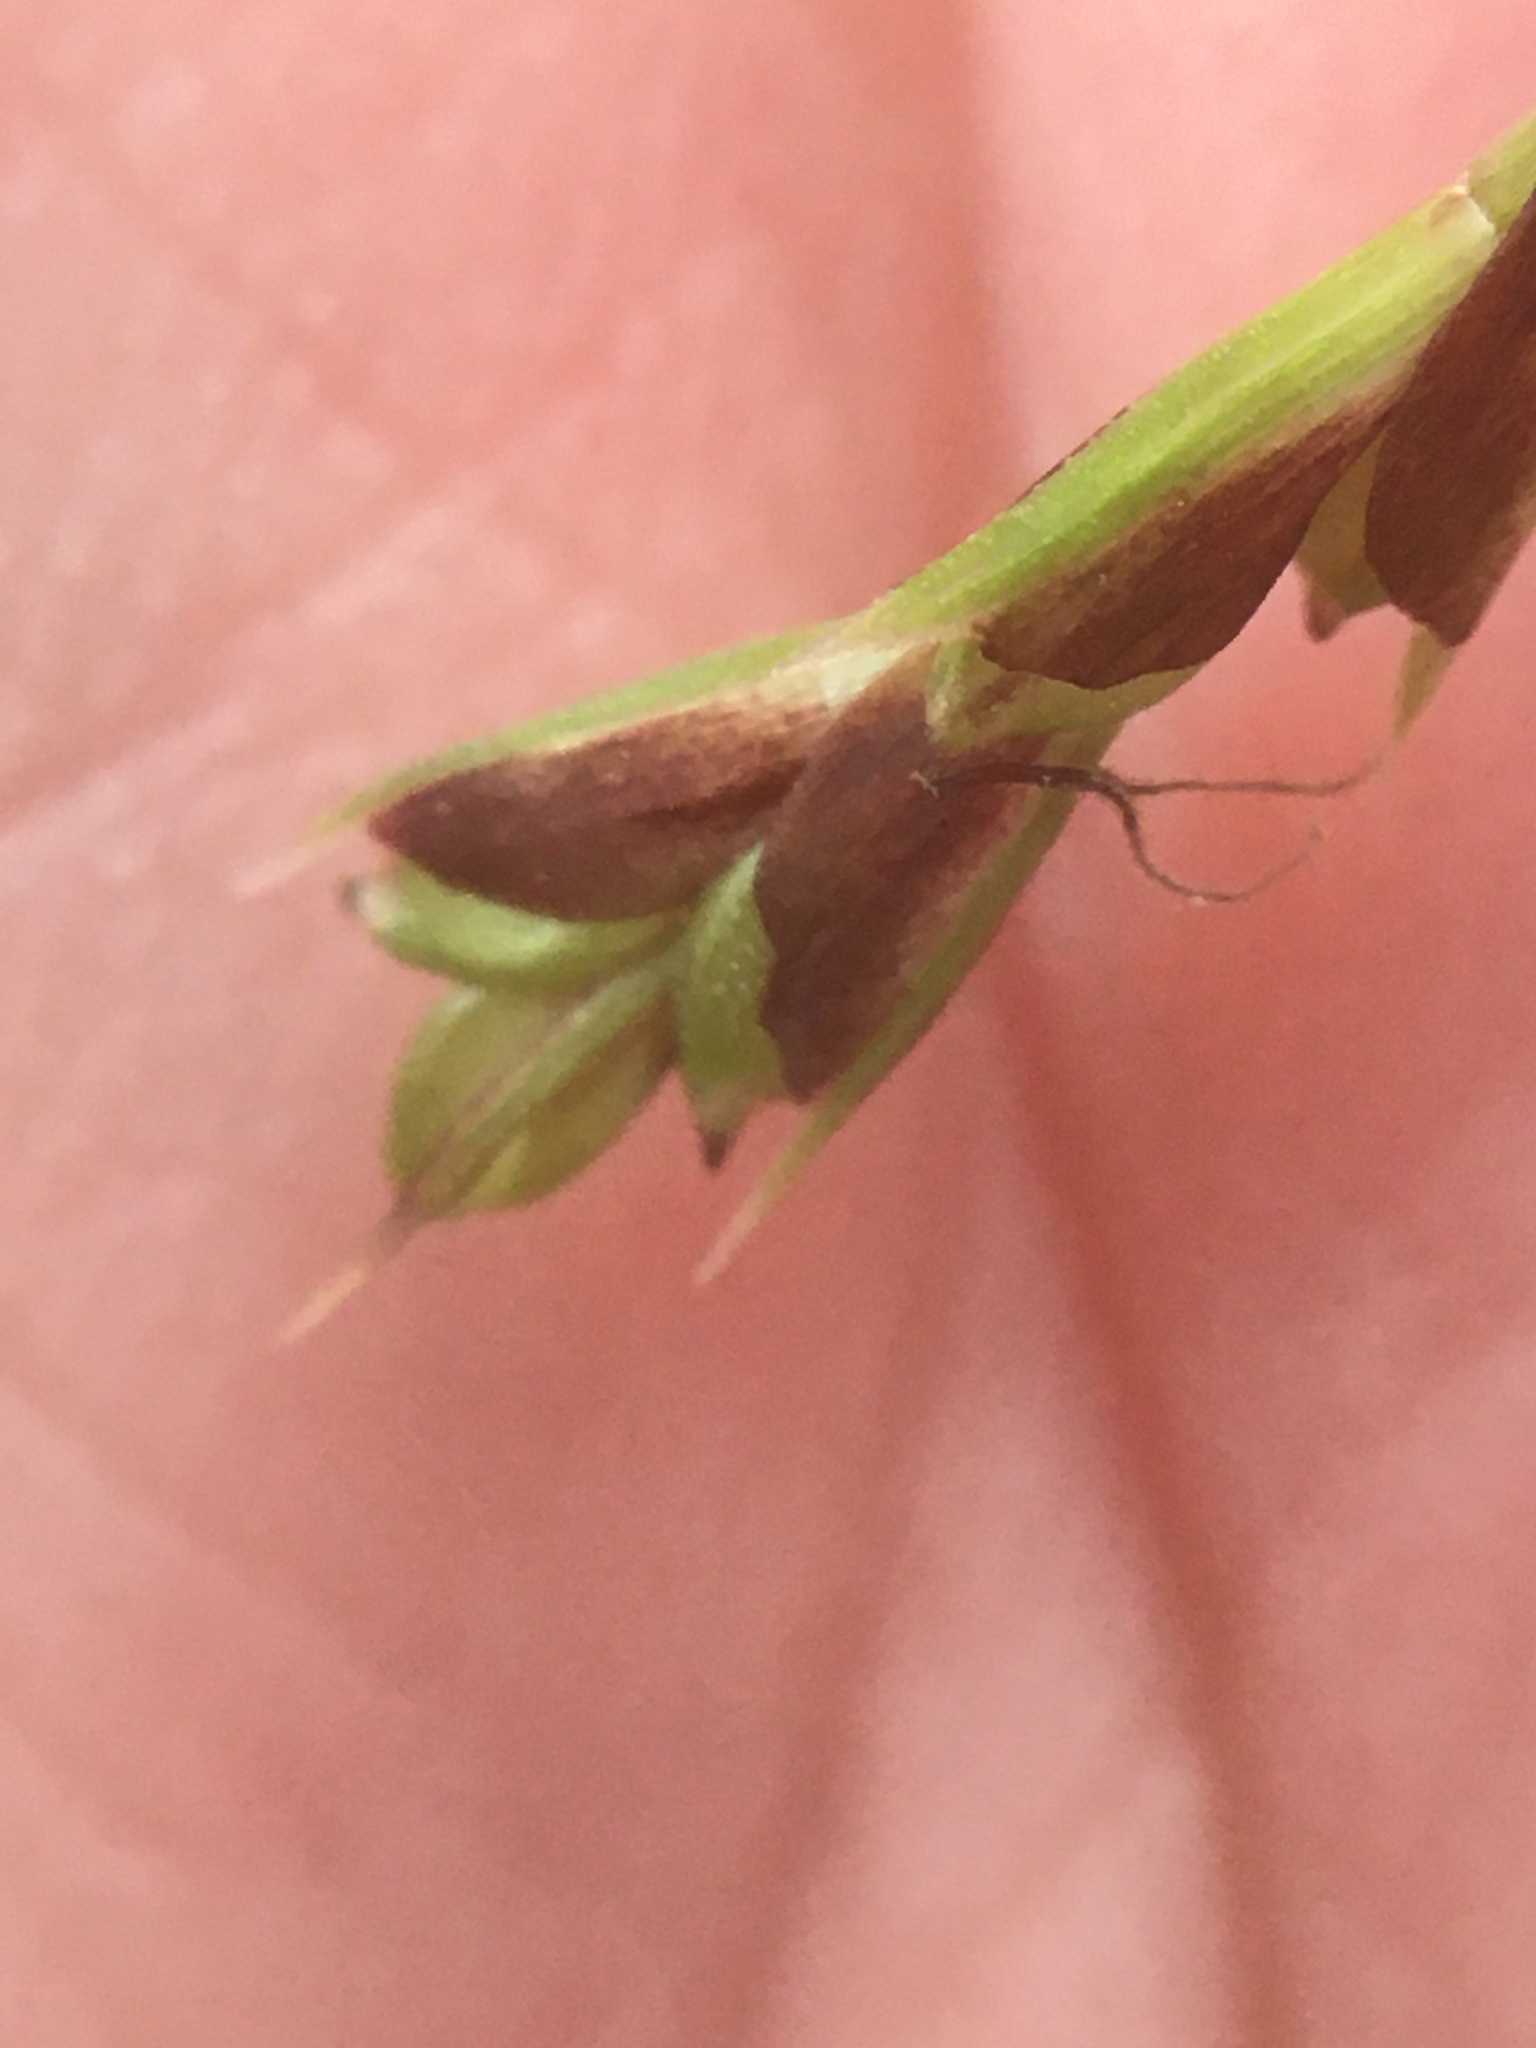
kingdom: Plantae
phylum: Tracheophyta
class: Liliopsida
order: Poales
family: Cyperaceae
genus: Carex
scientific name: Carex pedunculata
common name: Pedunculate sedge
